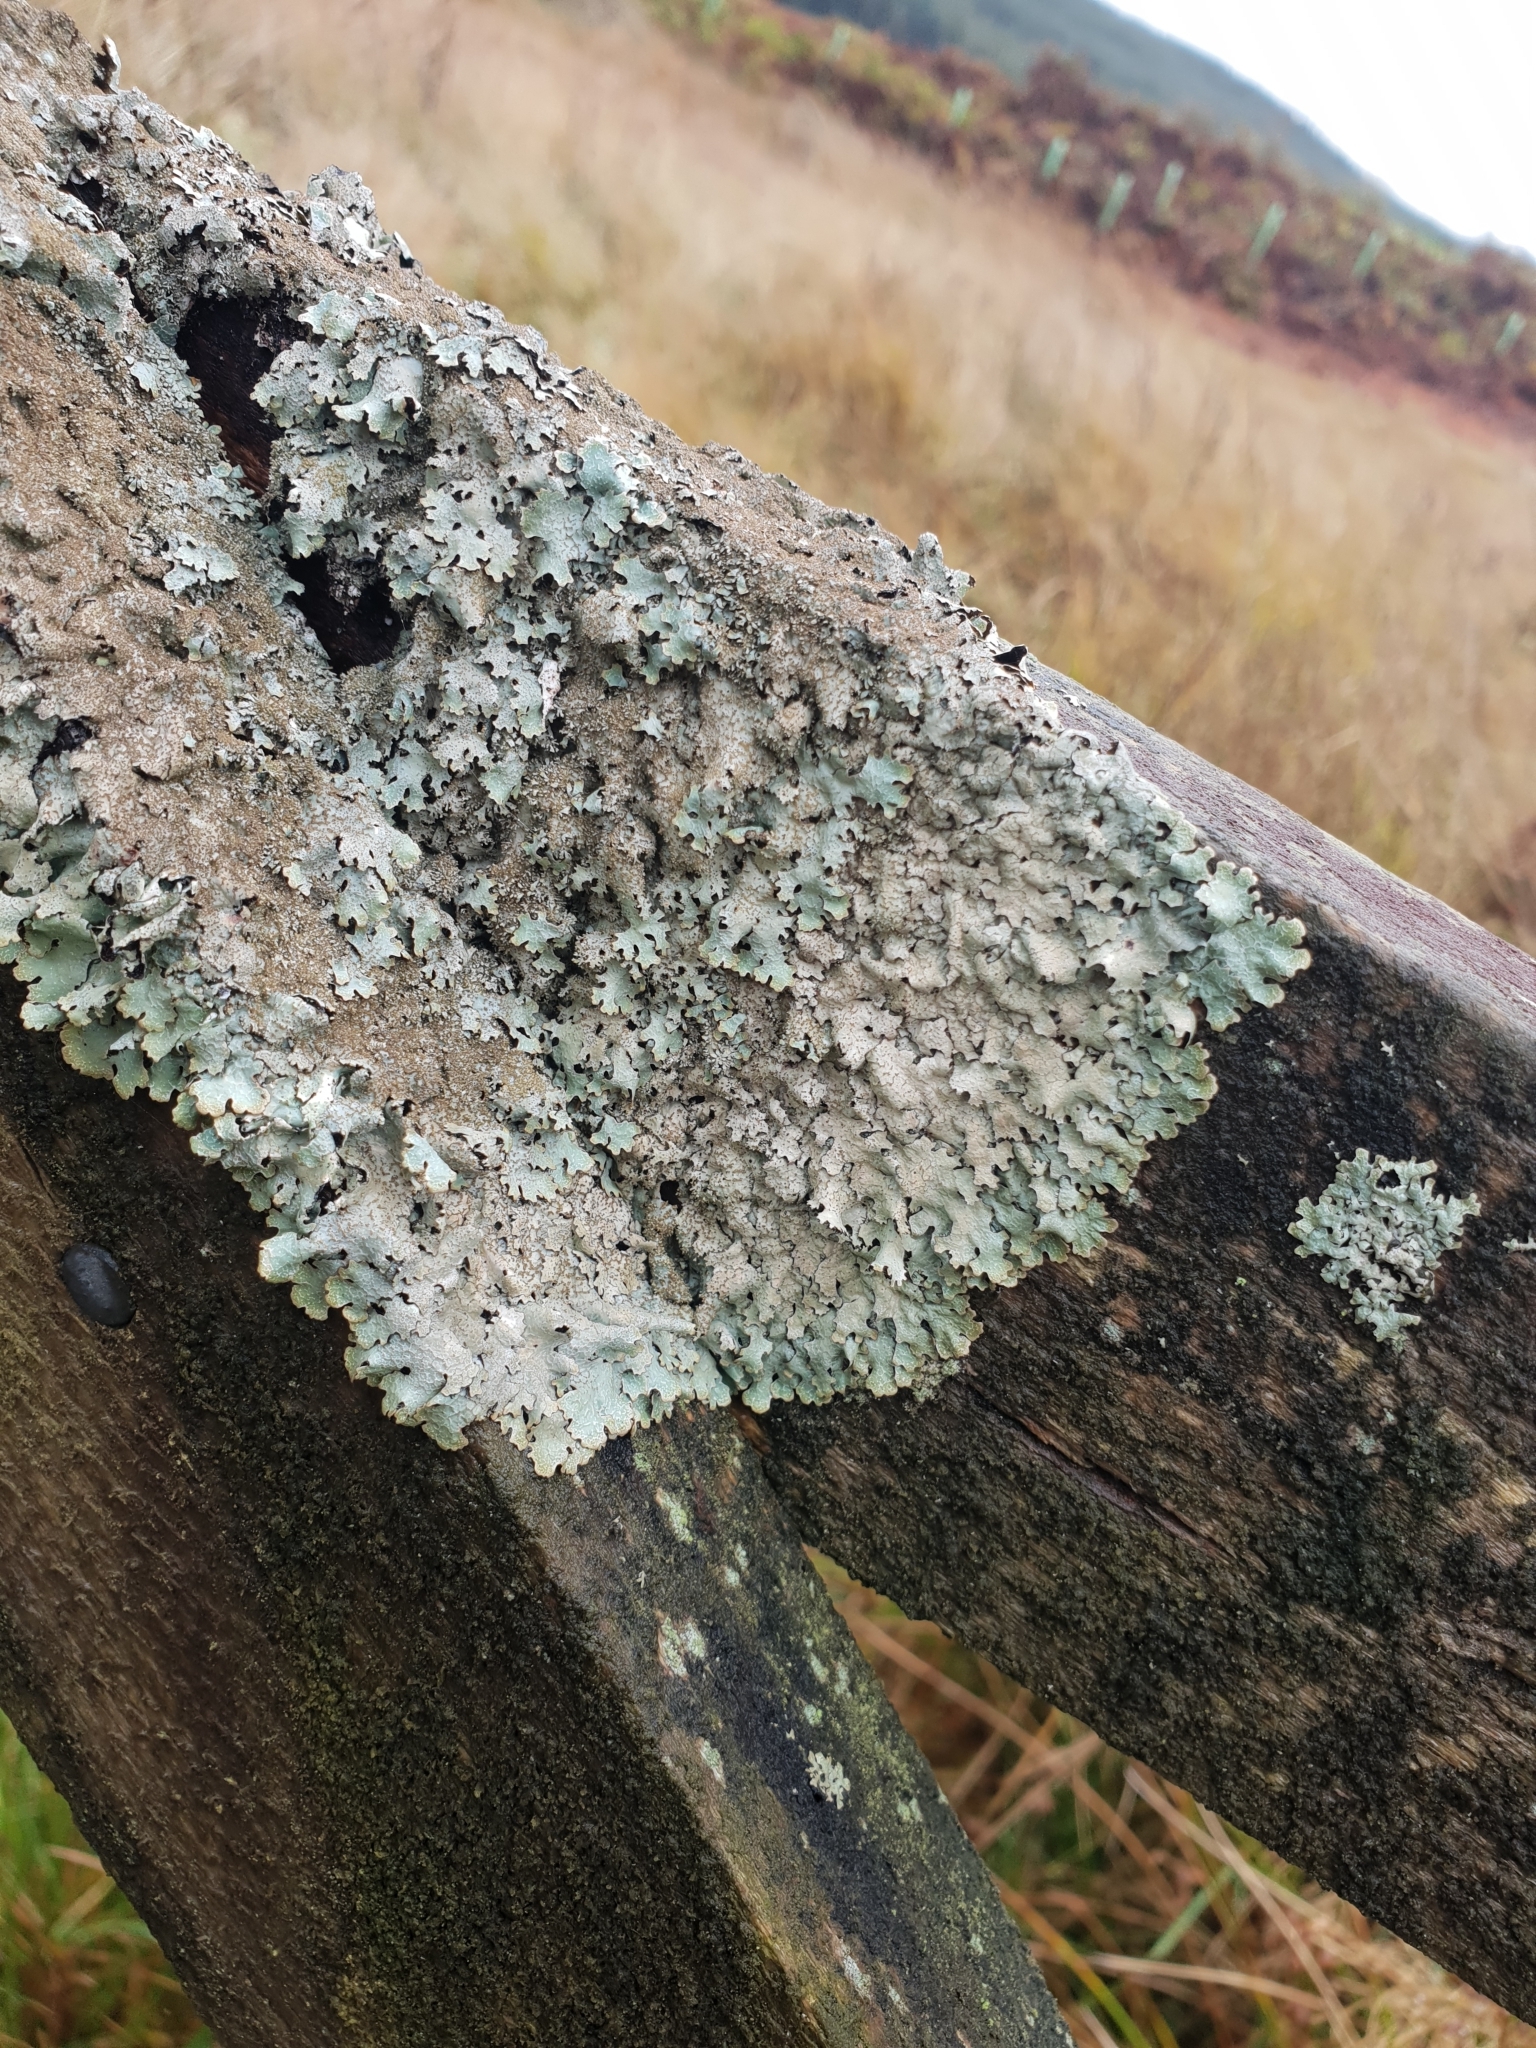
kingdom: Fungi
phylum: Ascomycota
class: Lecanoromycetes
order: Lecanorales
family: Parmeliaceae
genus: Parmelia
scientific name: Parmelia saxatilis
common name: Salted shield lichen
